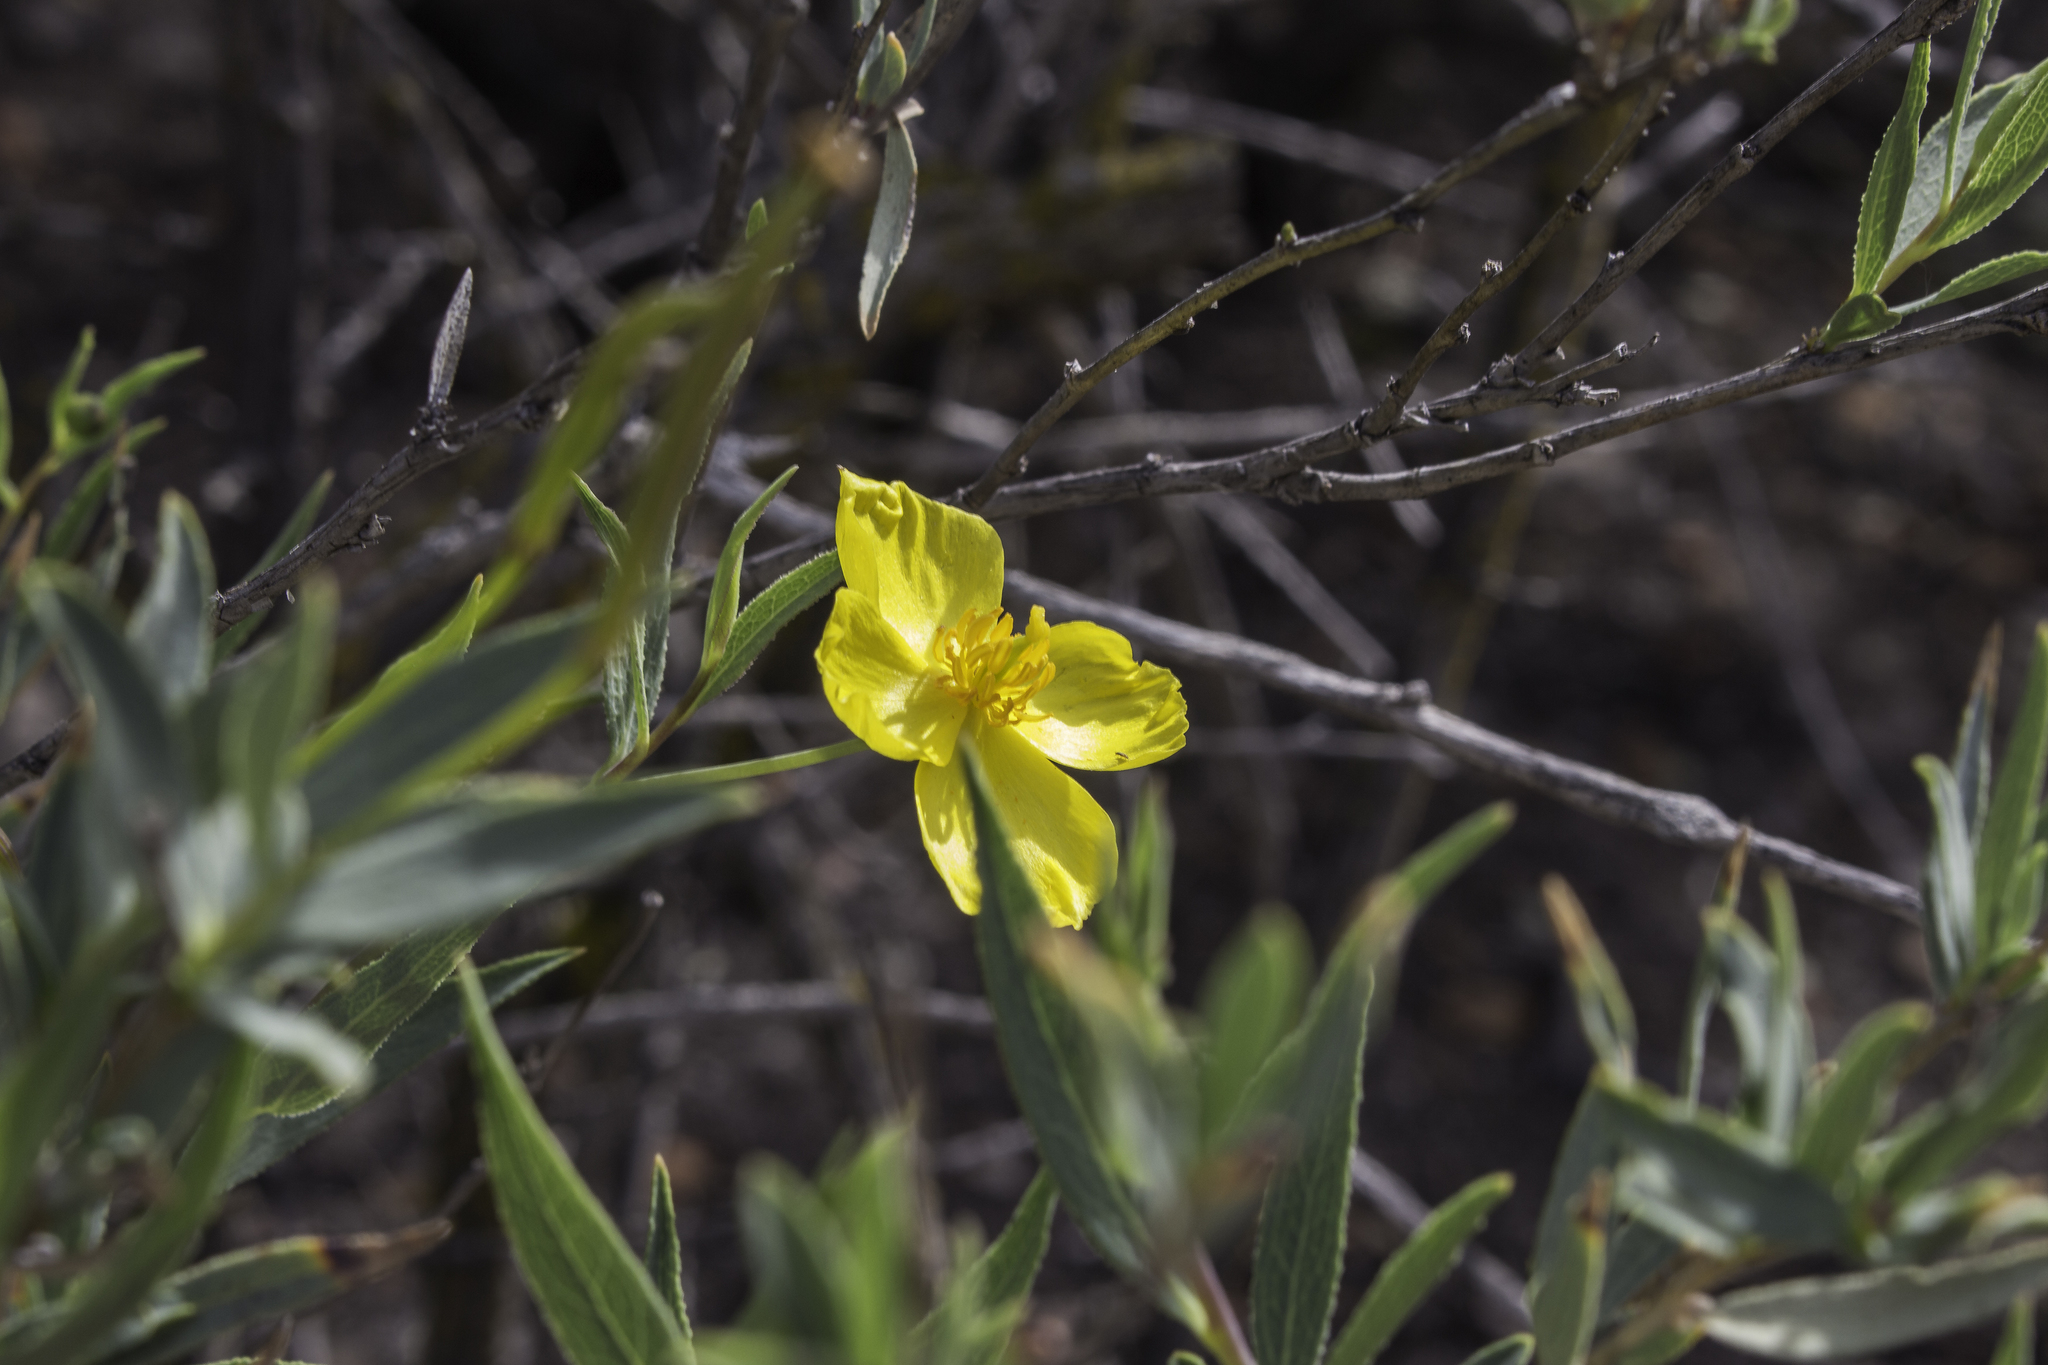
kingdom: Plantae
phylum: Tracheophyta
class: Magnoliopsida
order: Ranunculales
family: Papaveraceae
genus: Dendromecon
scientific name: Dendromecon rigida
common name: Tree poppy
